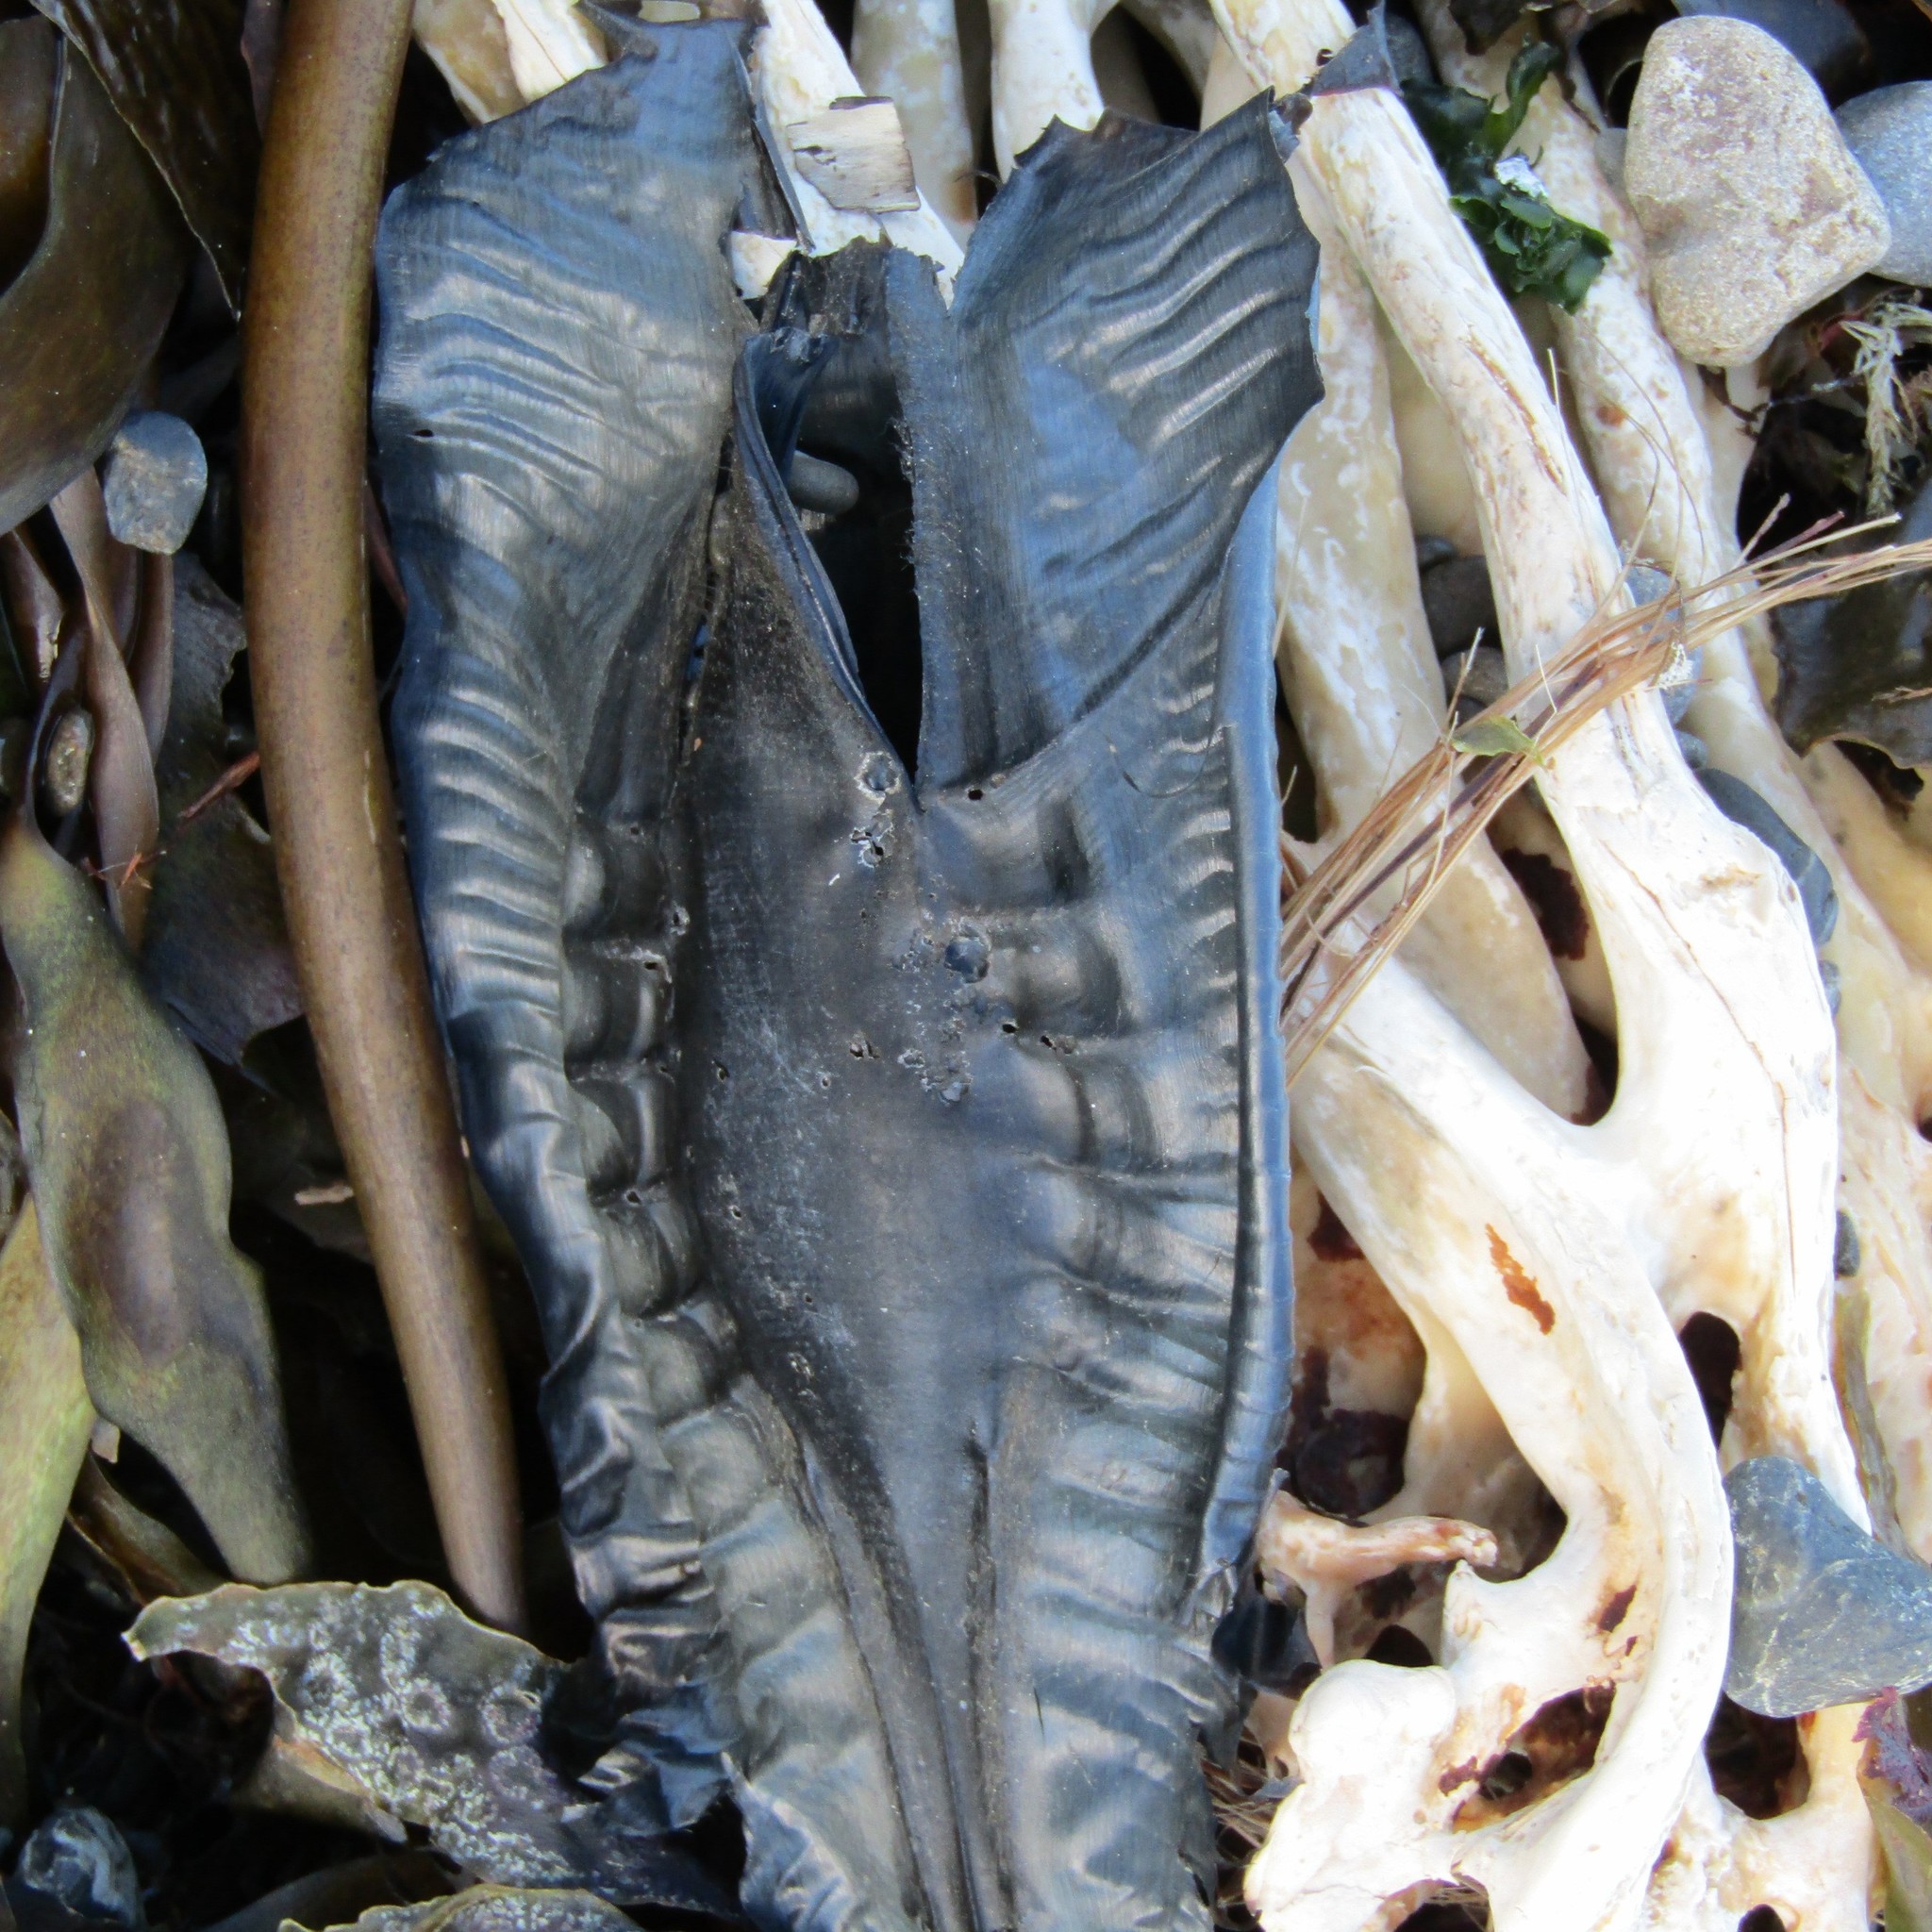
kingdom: Animalia
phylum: Chordata
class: Holocephali
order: Chimaeriformes
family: Callorhinchidae
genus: Callorhinchus
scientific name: Callorhinchus milii
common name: Elephant fish
